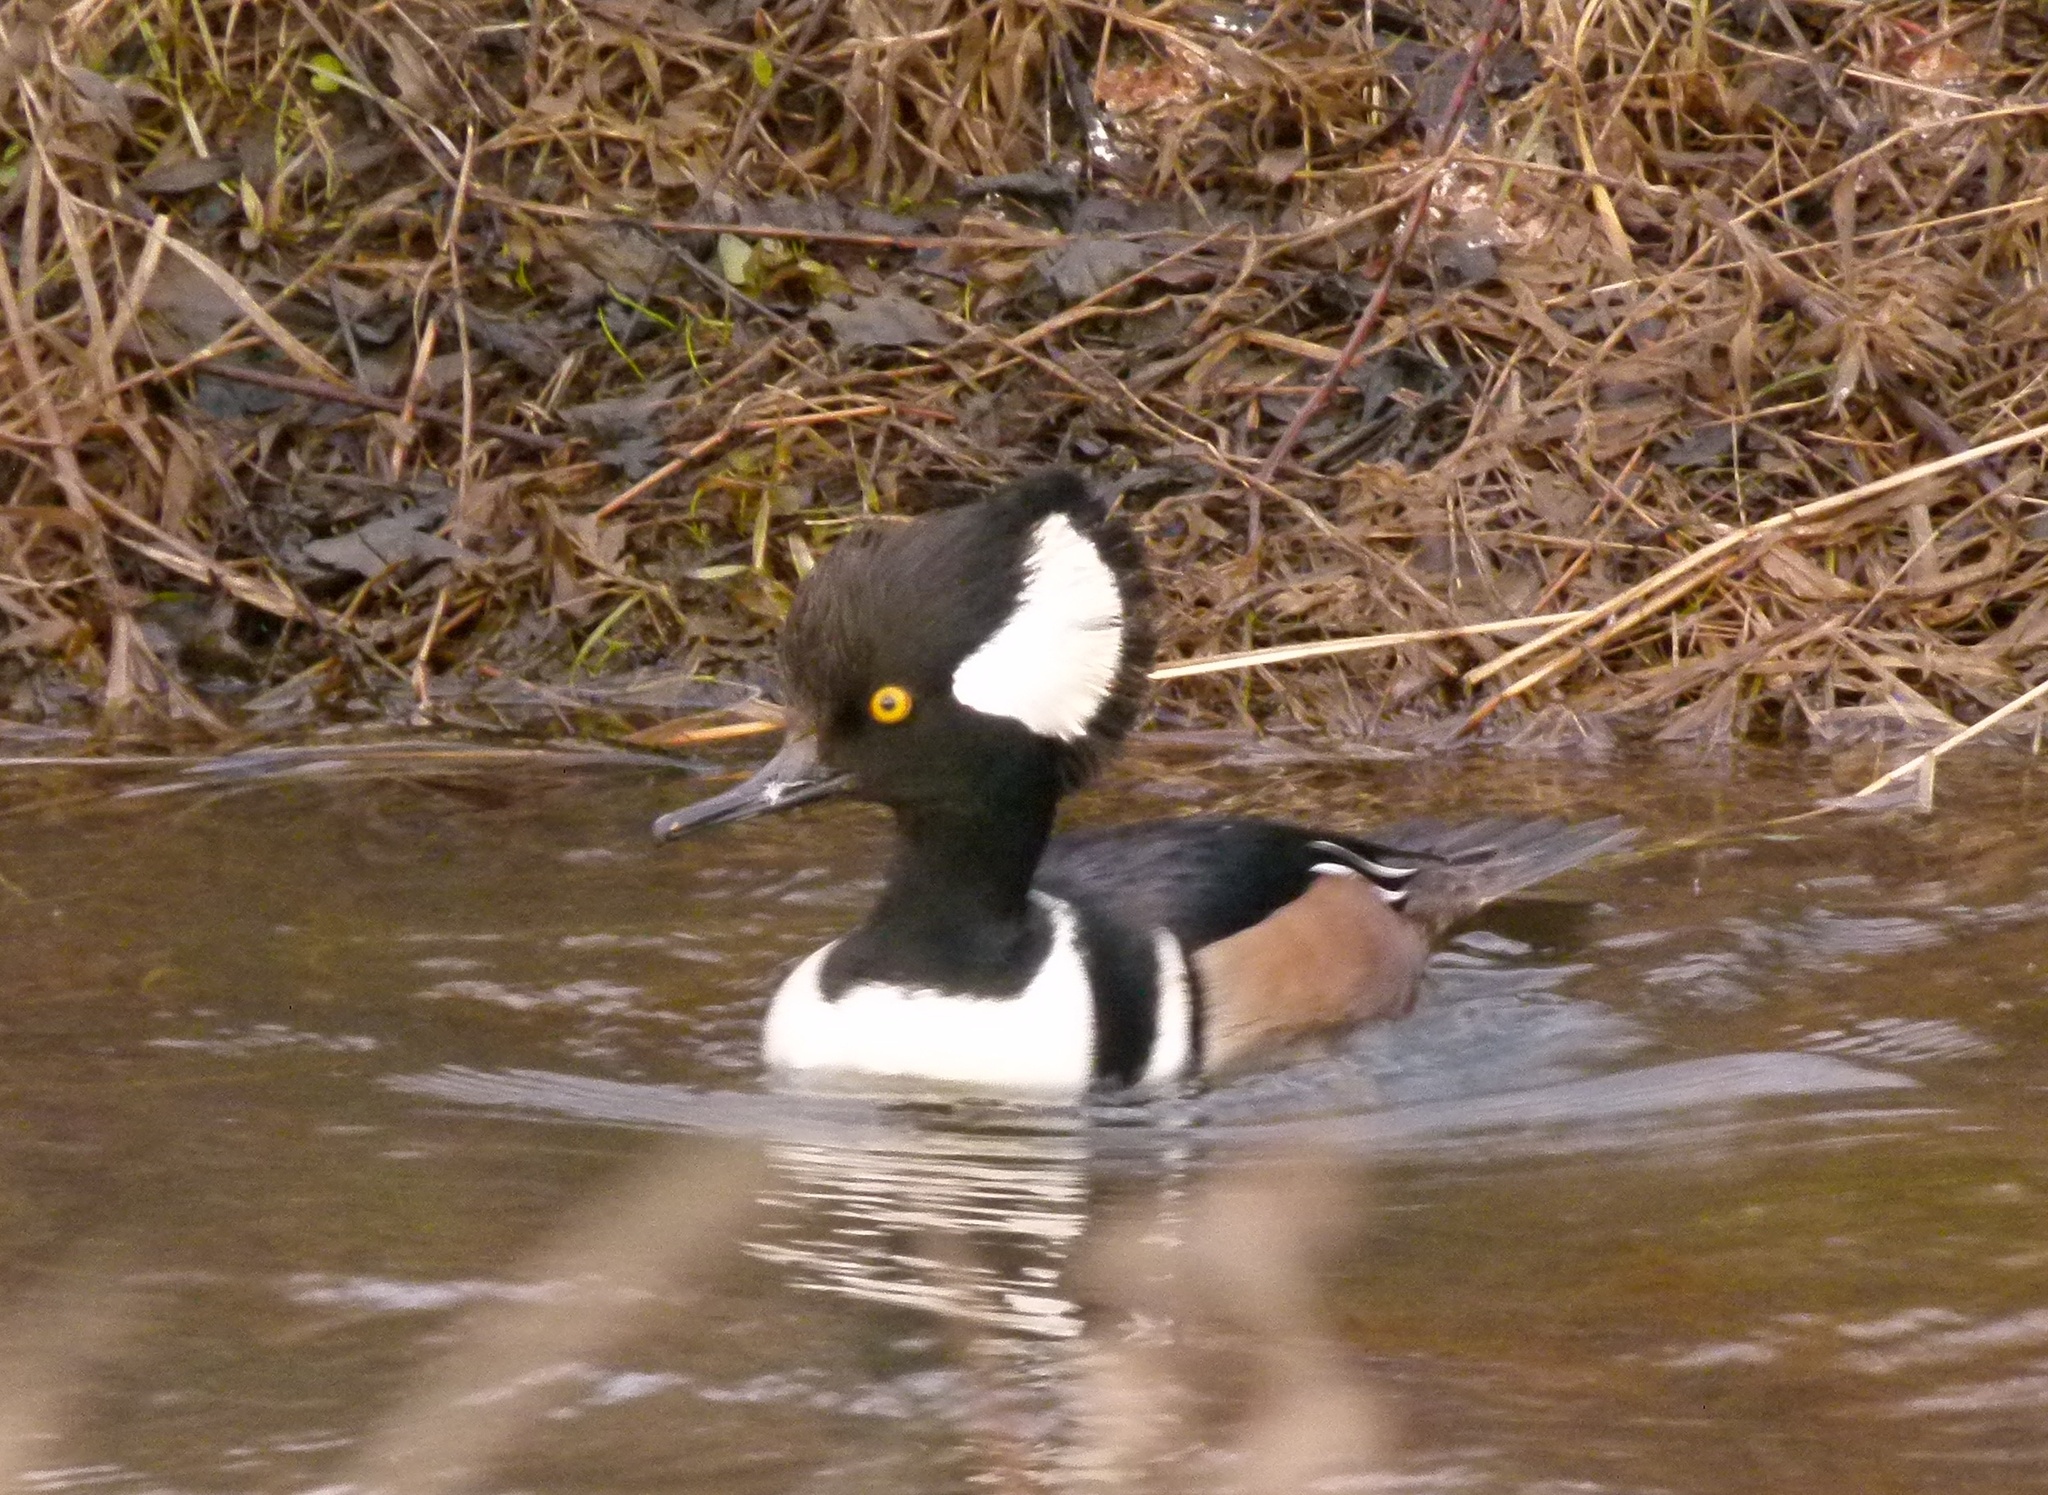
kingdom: Animalia
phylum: Chordata
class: Aves
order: Anseriformes
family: Anatidae
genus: Lophodytes
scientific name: Lophodytes cucullatus
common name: Hooded merganser
